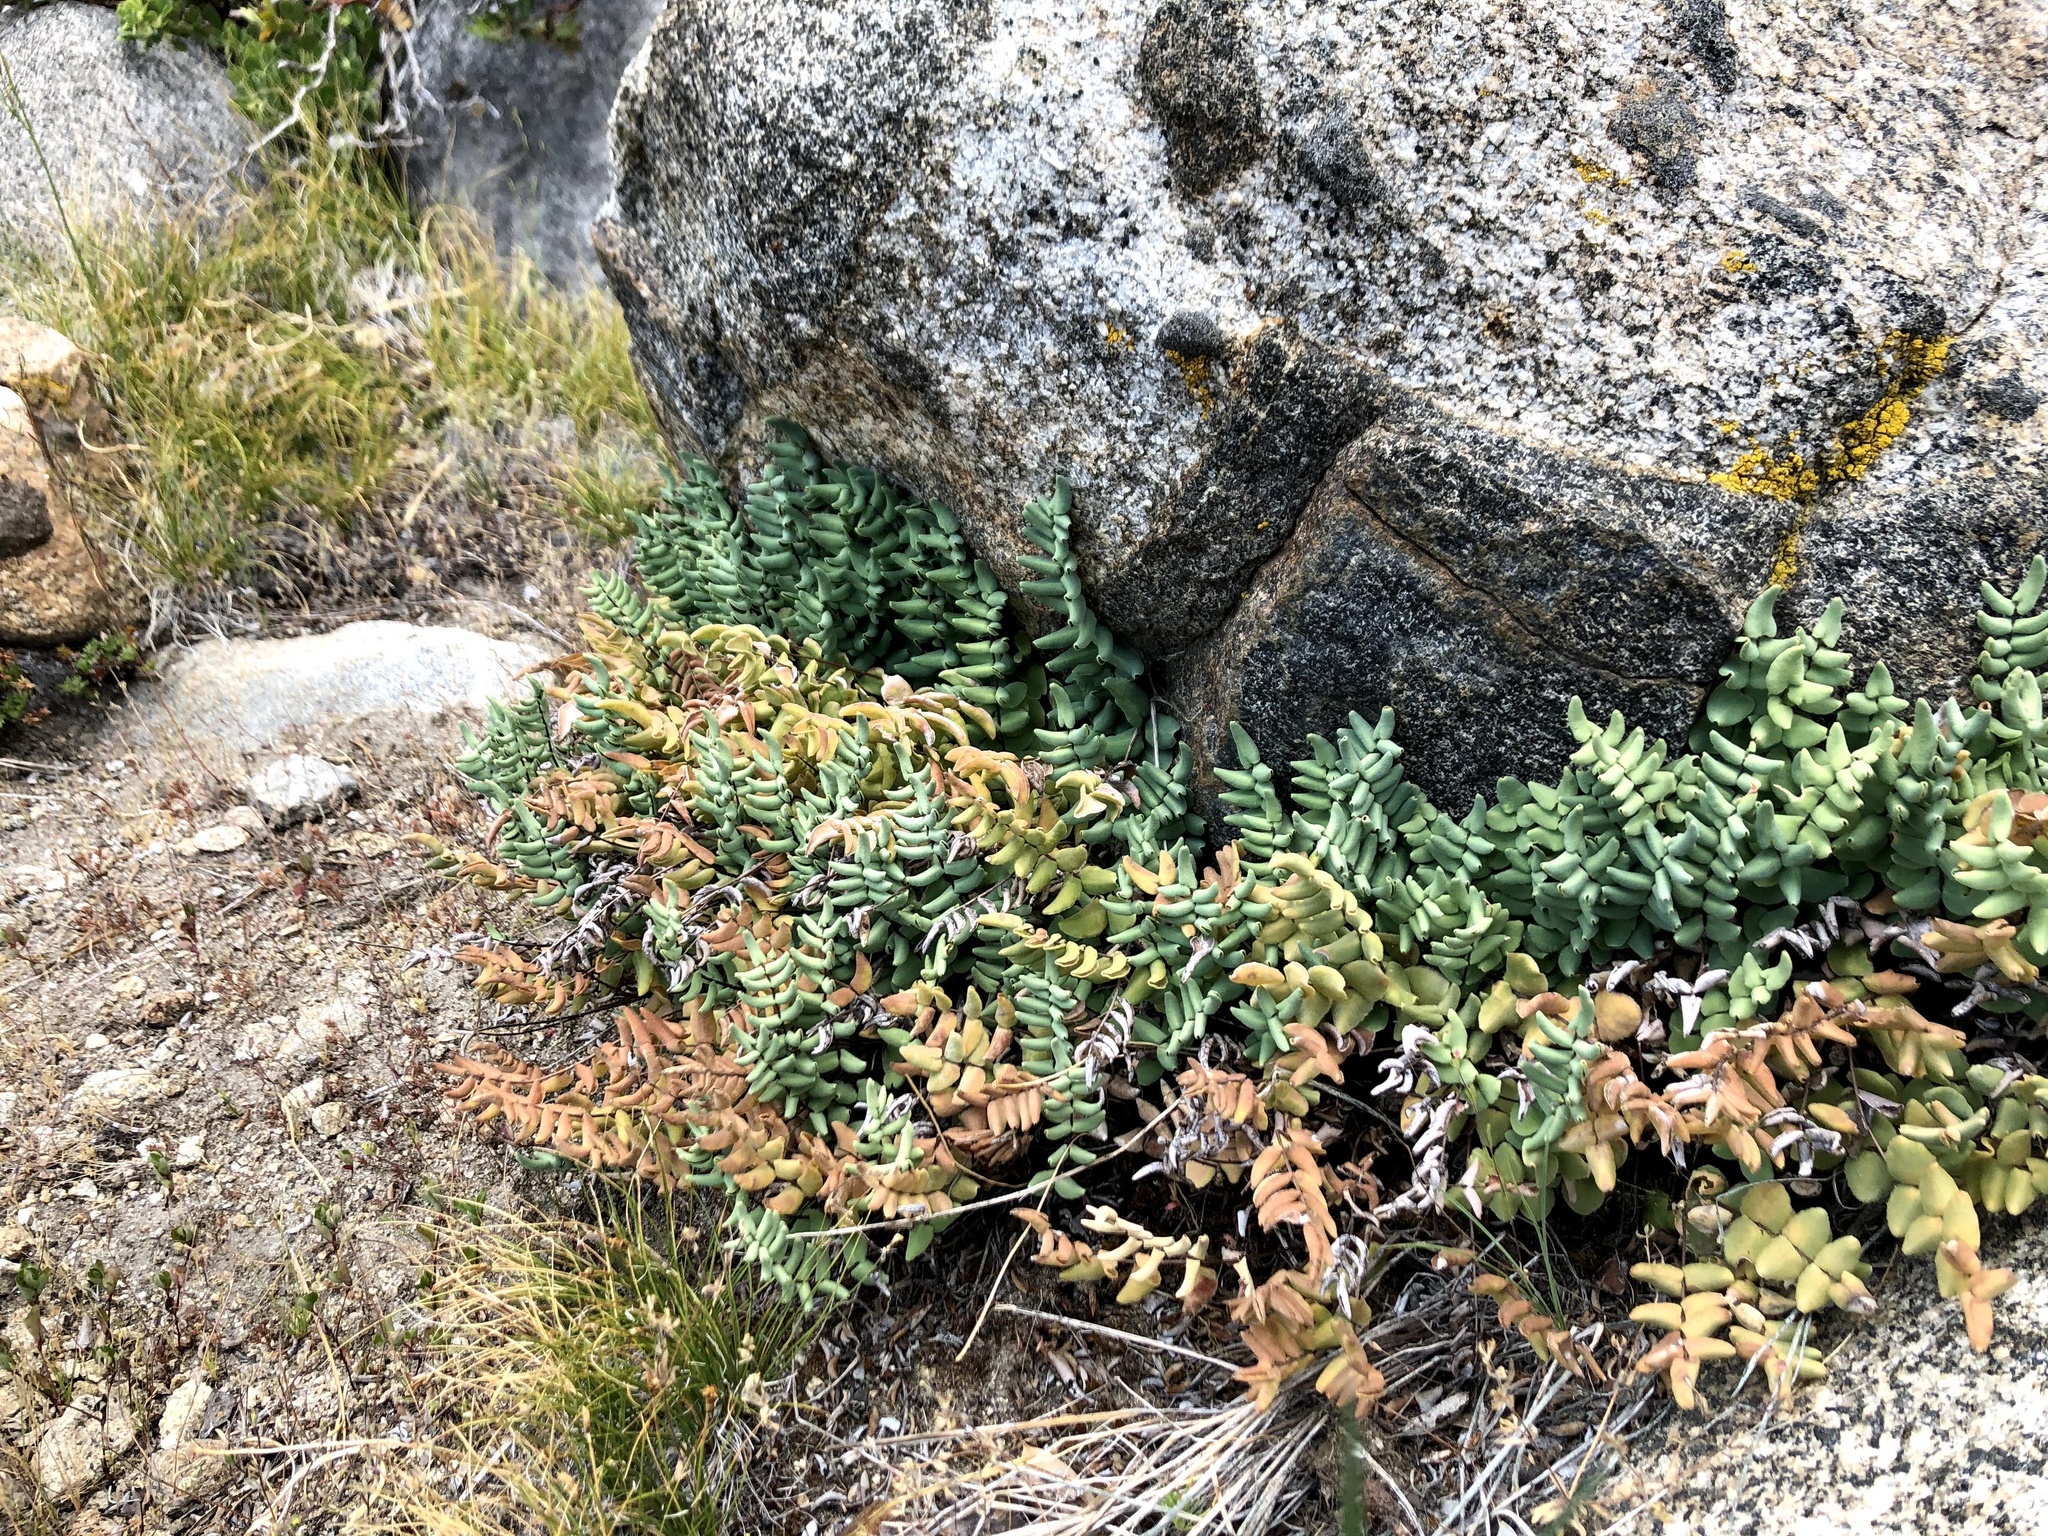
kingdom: Plantae
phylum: Tracheophyta
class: Polypodiopsida
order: Polypodiales
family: Pteridaceae
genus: Pellaea
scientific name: Pellaea bridgesii
